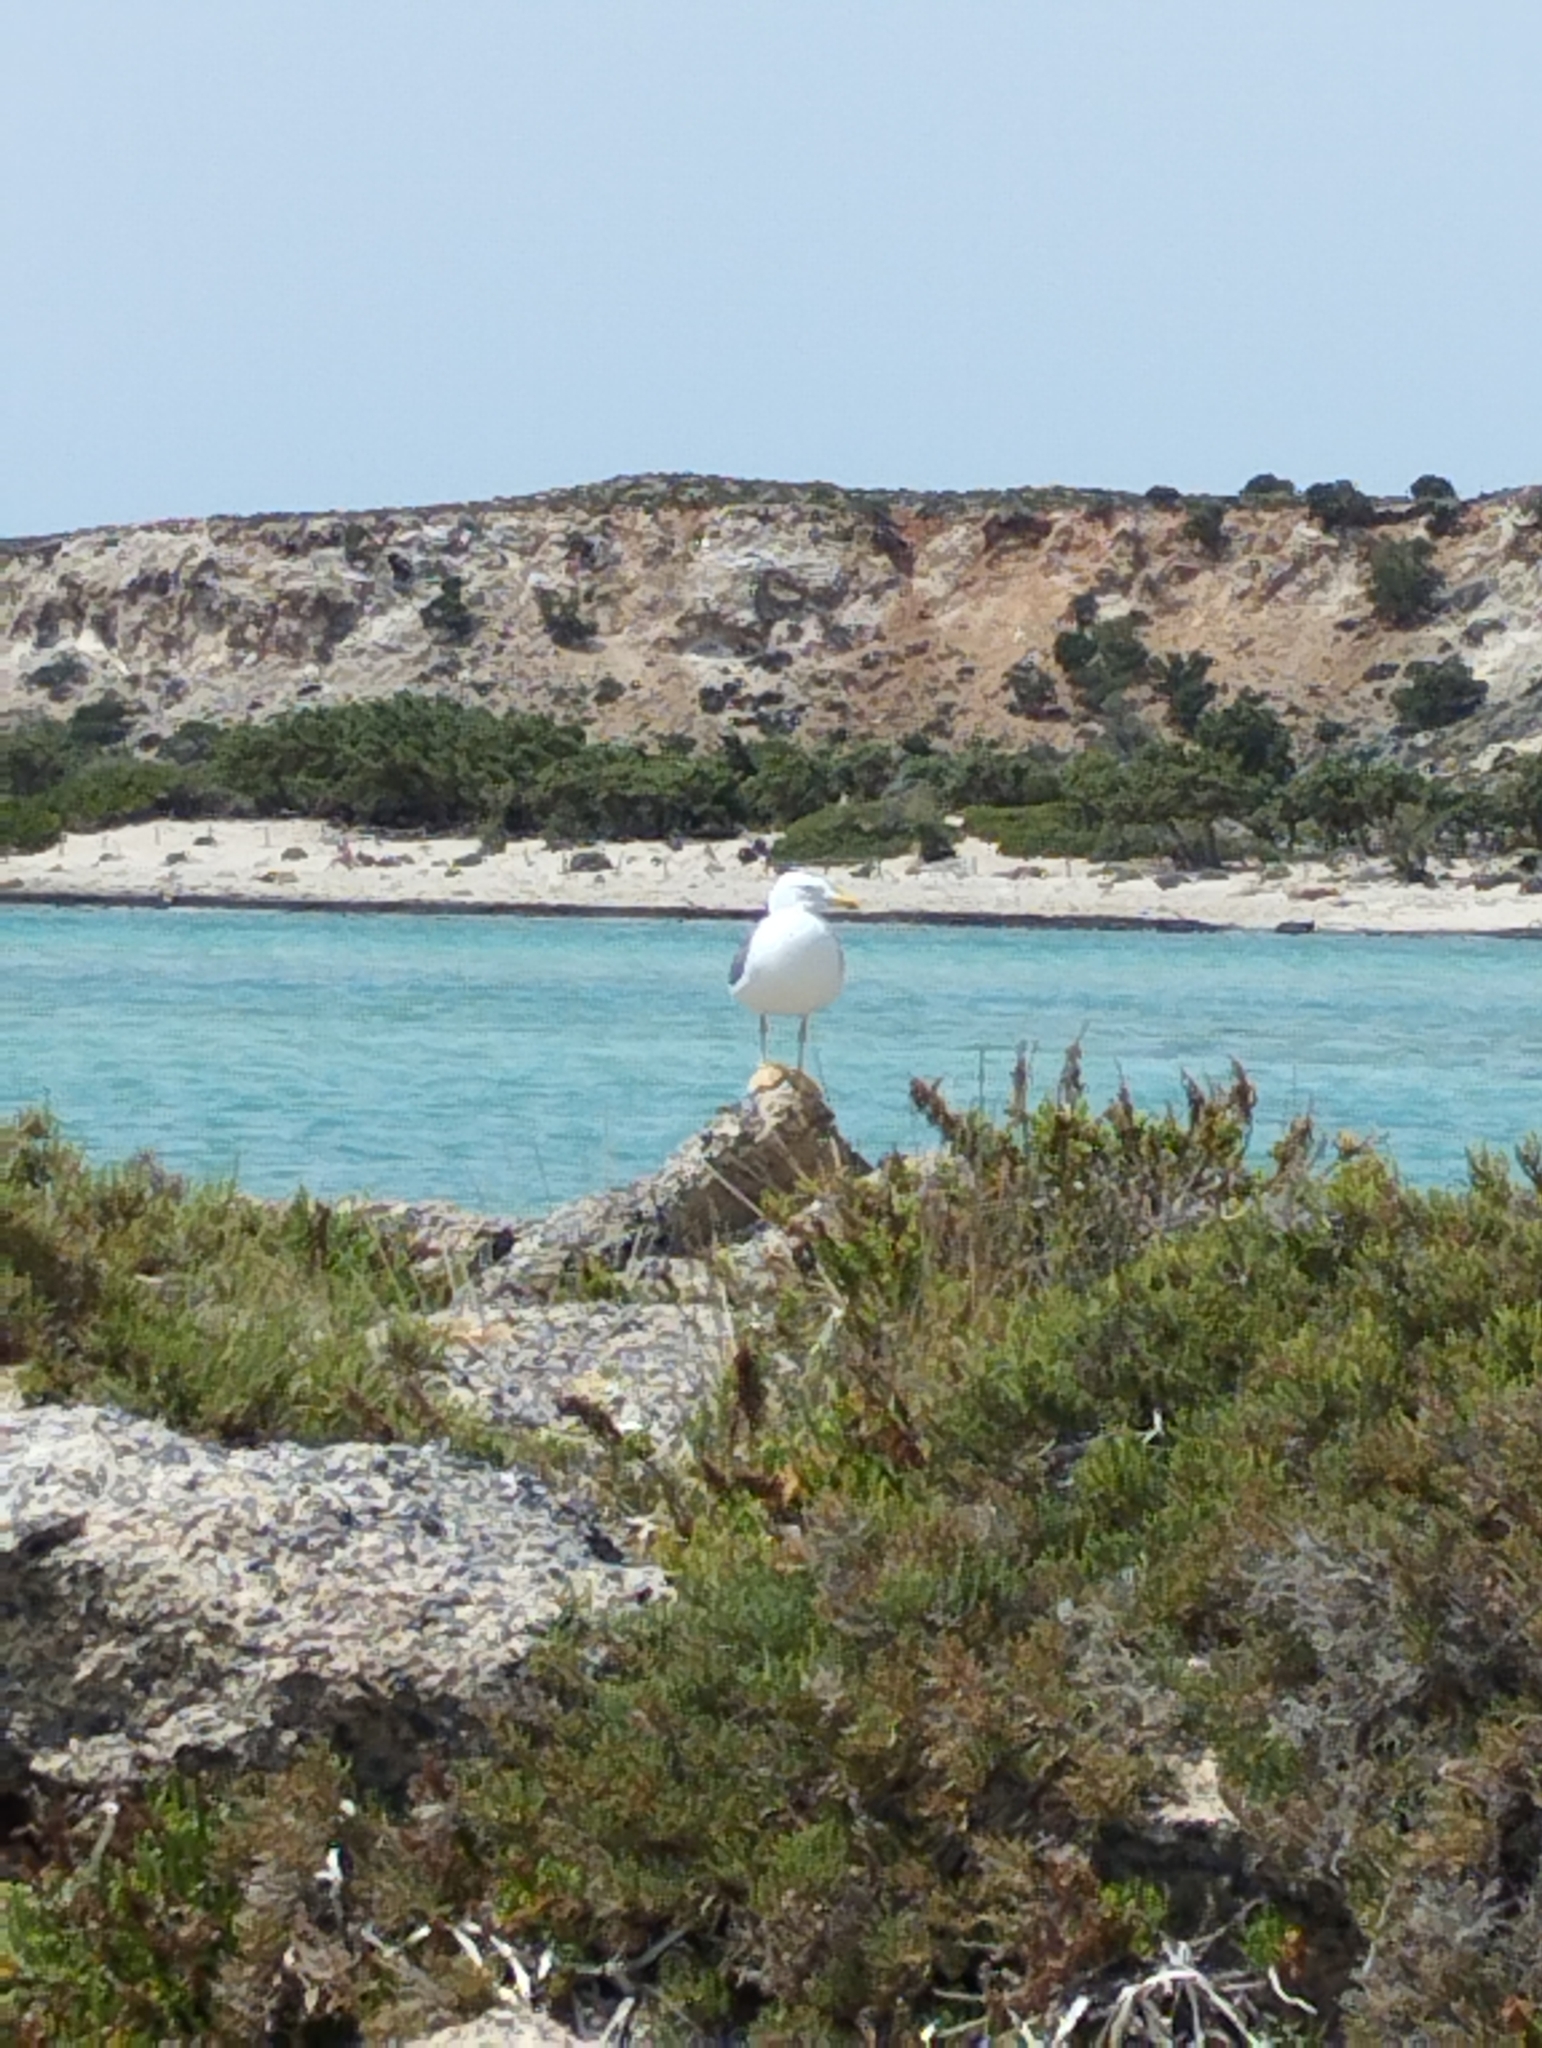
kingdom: Animalia
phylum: Chordata
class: Aves
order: Charadriiformes
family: Laridae
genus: Larus
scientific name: Larus michahellis
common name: Yellow-legged gull
